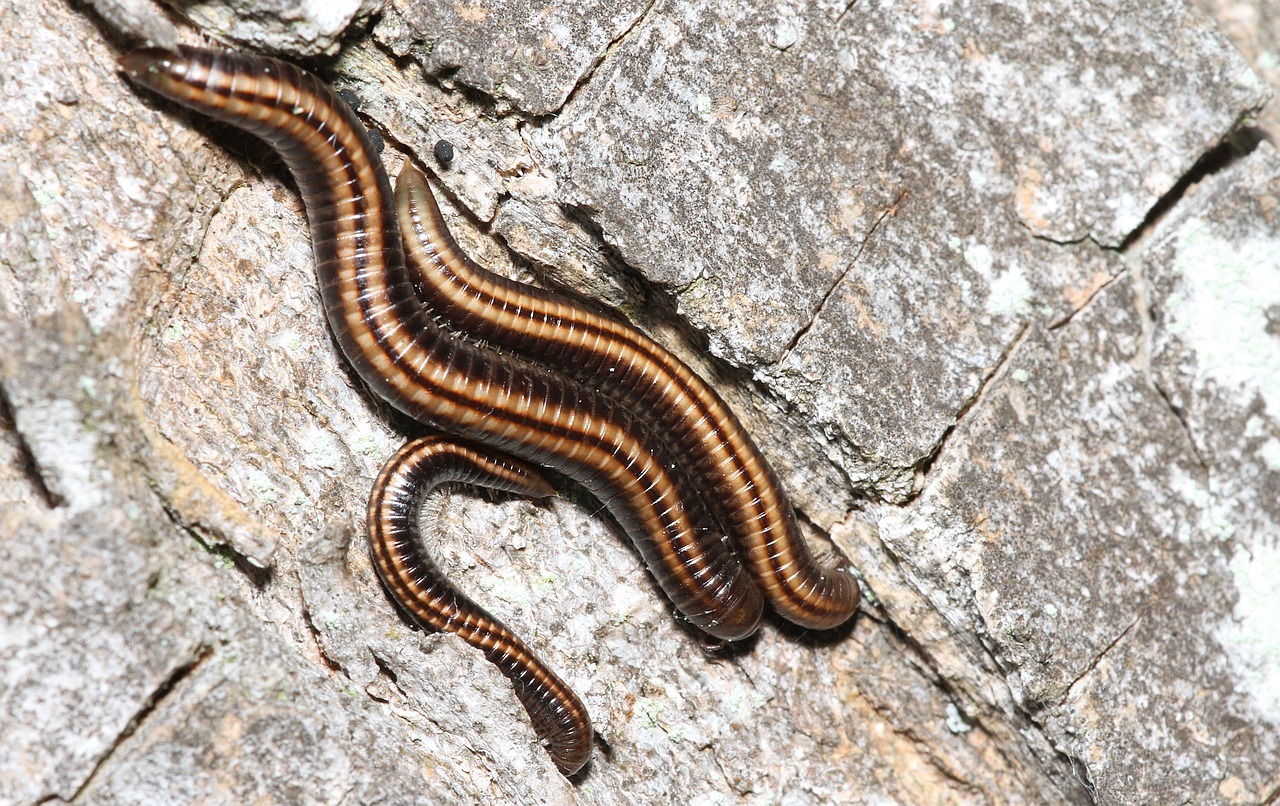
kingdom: Animalia
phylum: Arthropoda
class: Diplopoda
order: Julida
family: Julidae
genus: Ommatoiulus
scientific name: Ommatoiulus sabulosus
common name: Striped millipede
